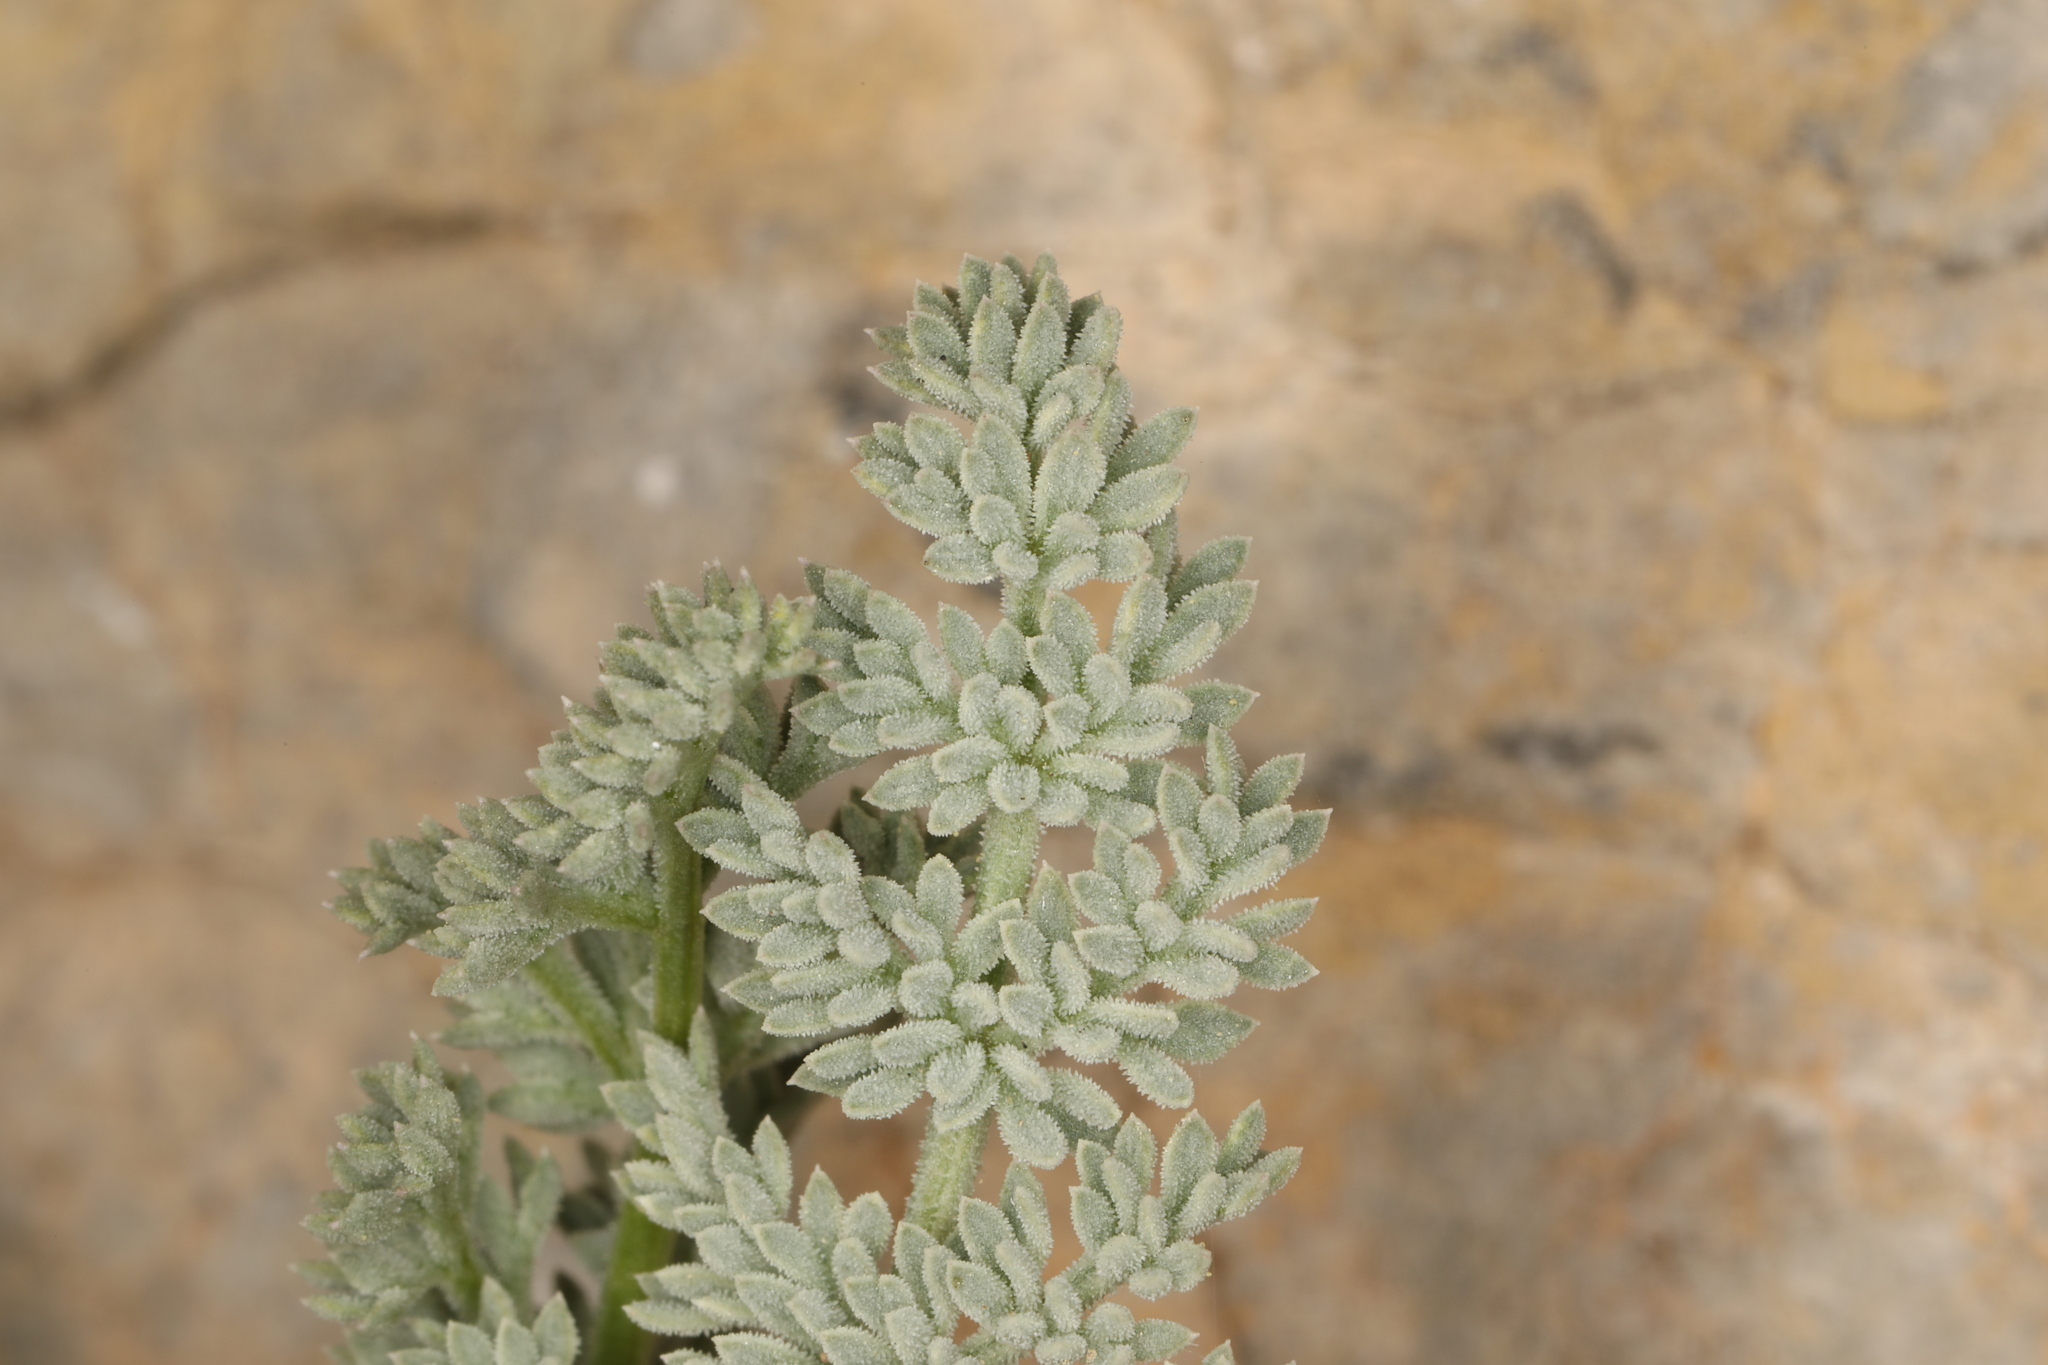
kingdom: Plantae
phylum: Tracheophyta
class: Magnoliopsida
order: Apiales
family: Apiaceae
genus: Aulospermum
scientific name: Aulospermum aboriginum
